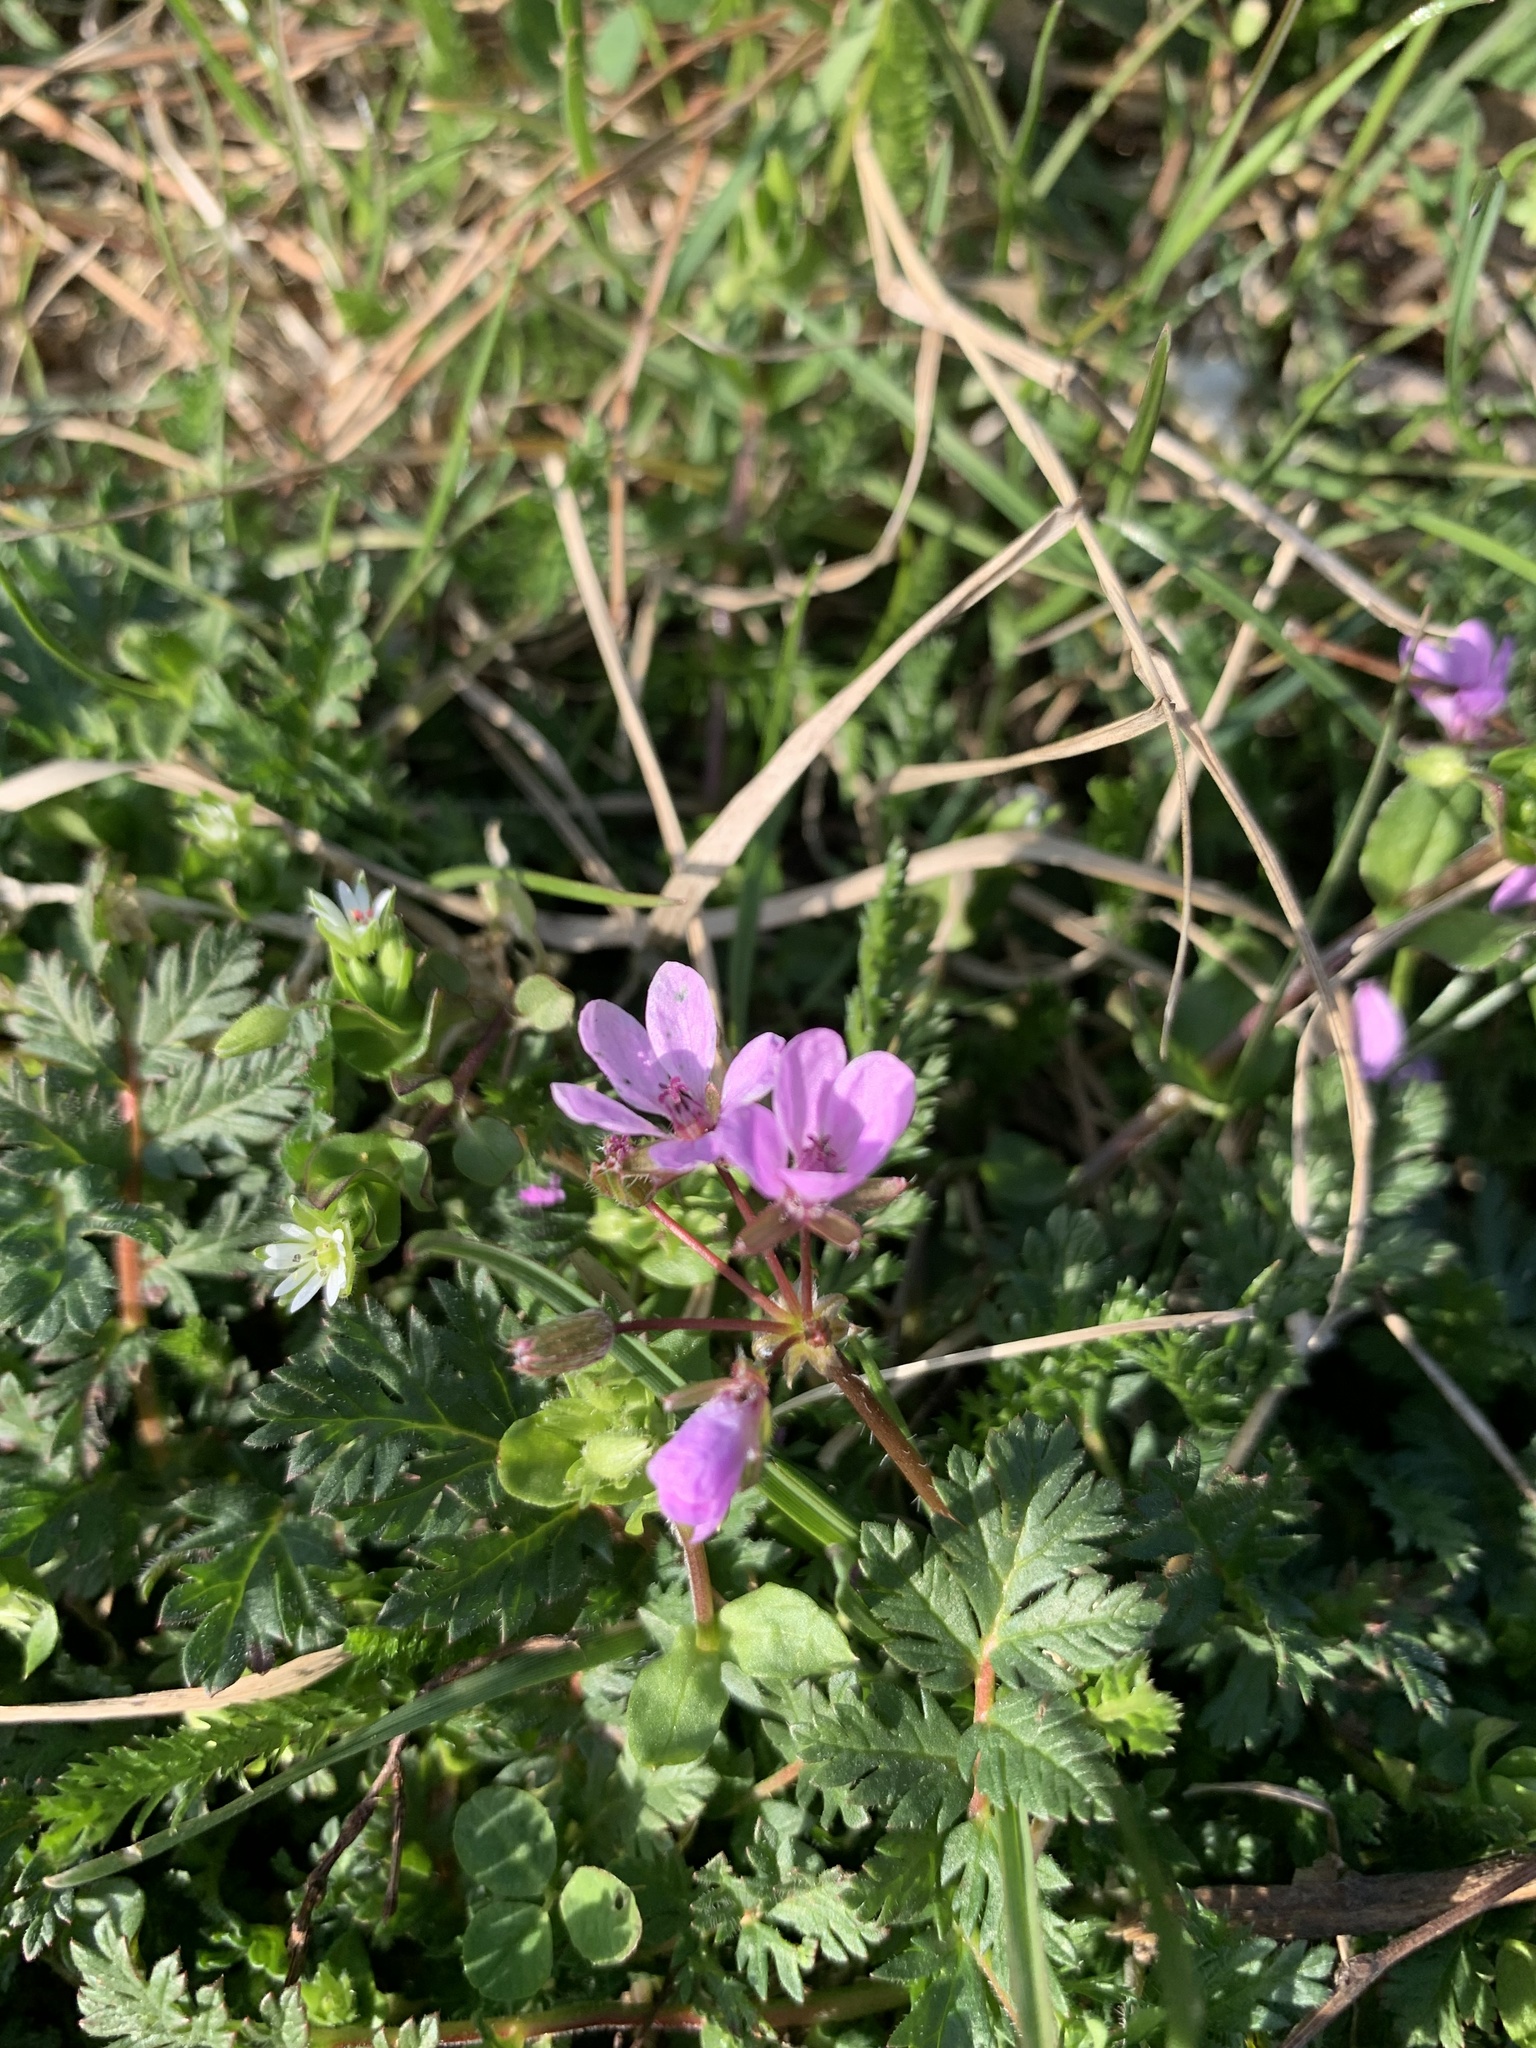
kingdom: Plantae
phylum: Tracheophyta
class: Magnoliopsida
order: Geraniales
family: Geraniaceae
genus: Erodium
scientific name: Erodium cicutarium
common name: Common stork's-bill
